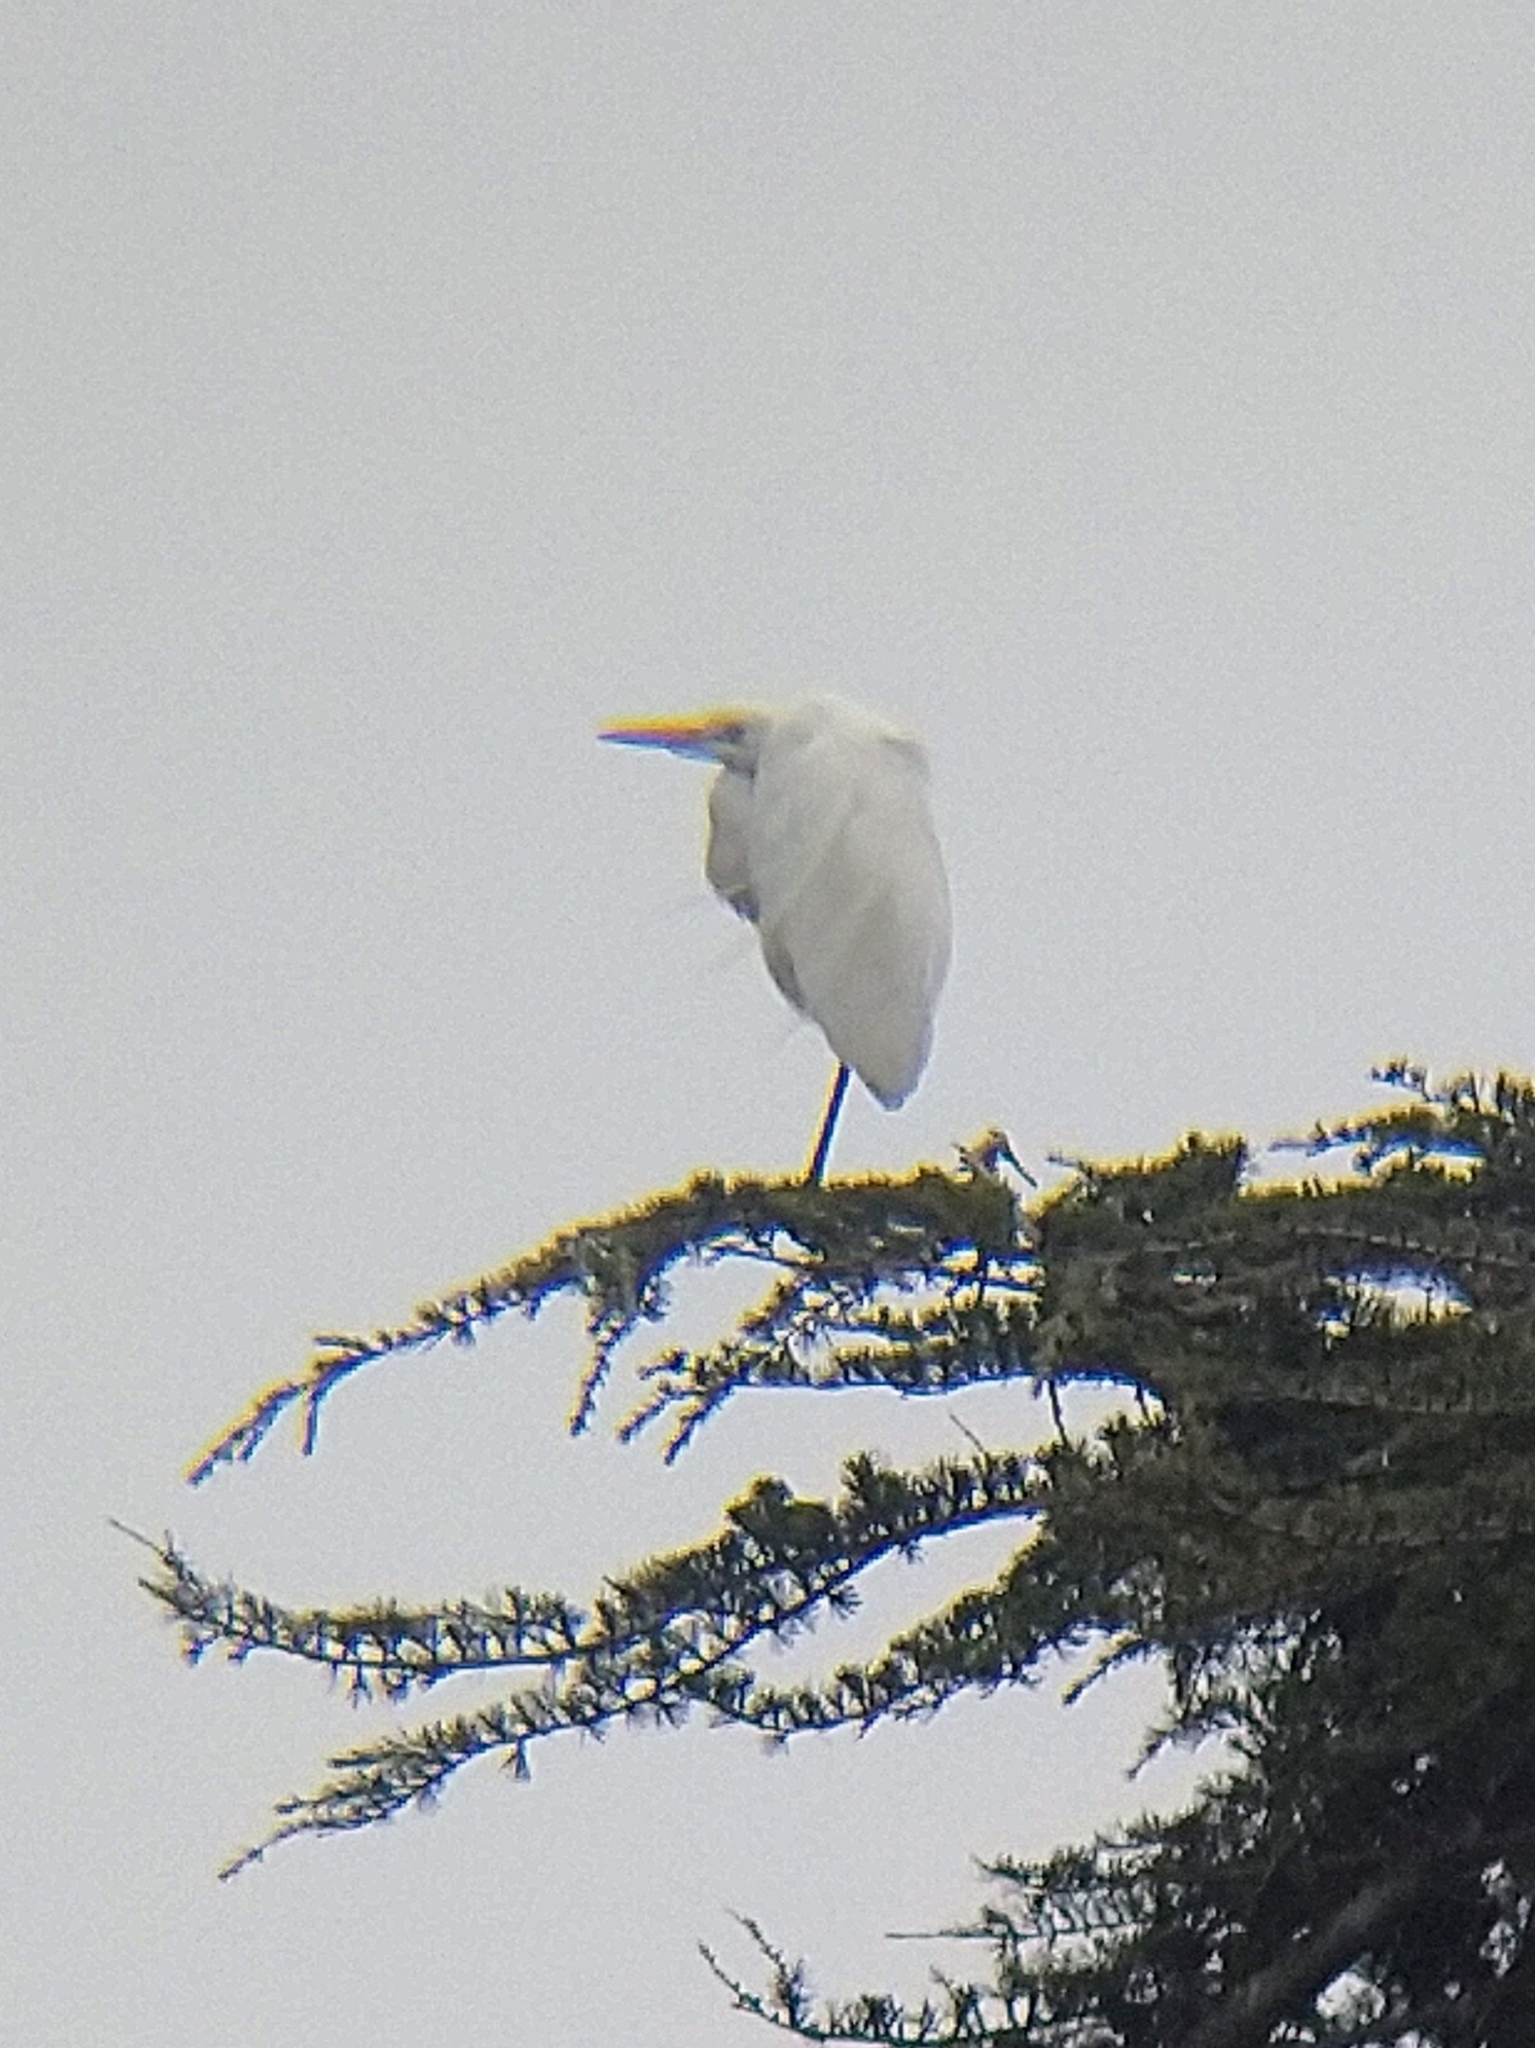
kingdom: Animalia
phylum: Chordata
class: Aves
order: Pelecaniformes
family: Ardeidae
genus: Ardea
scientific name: Ardea alba
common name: Great egret
